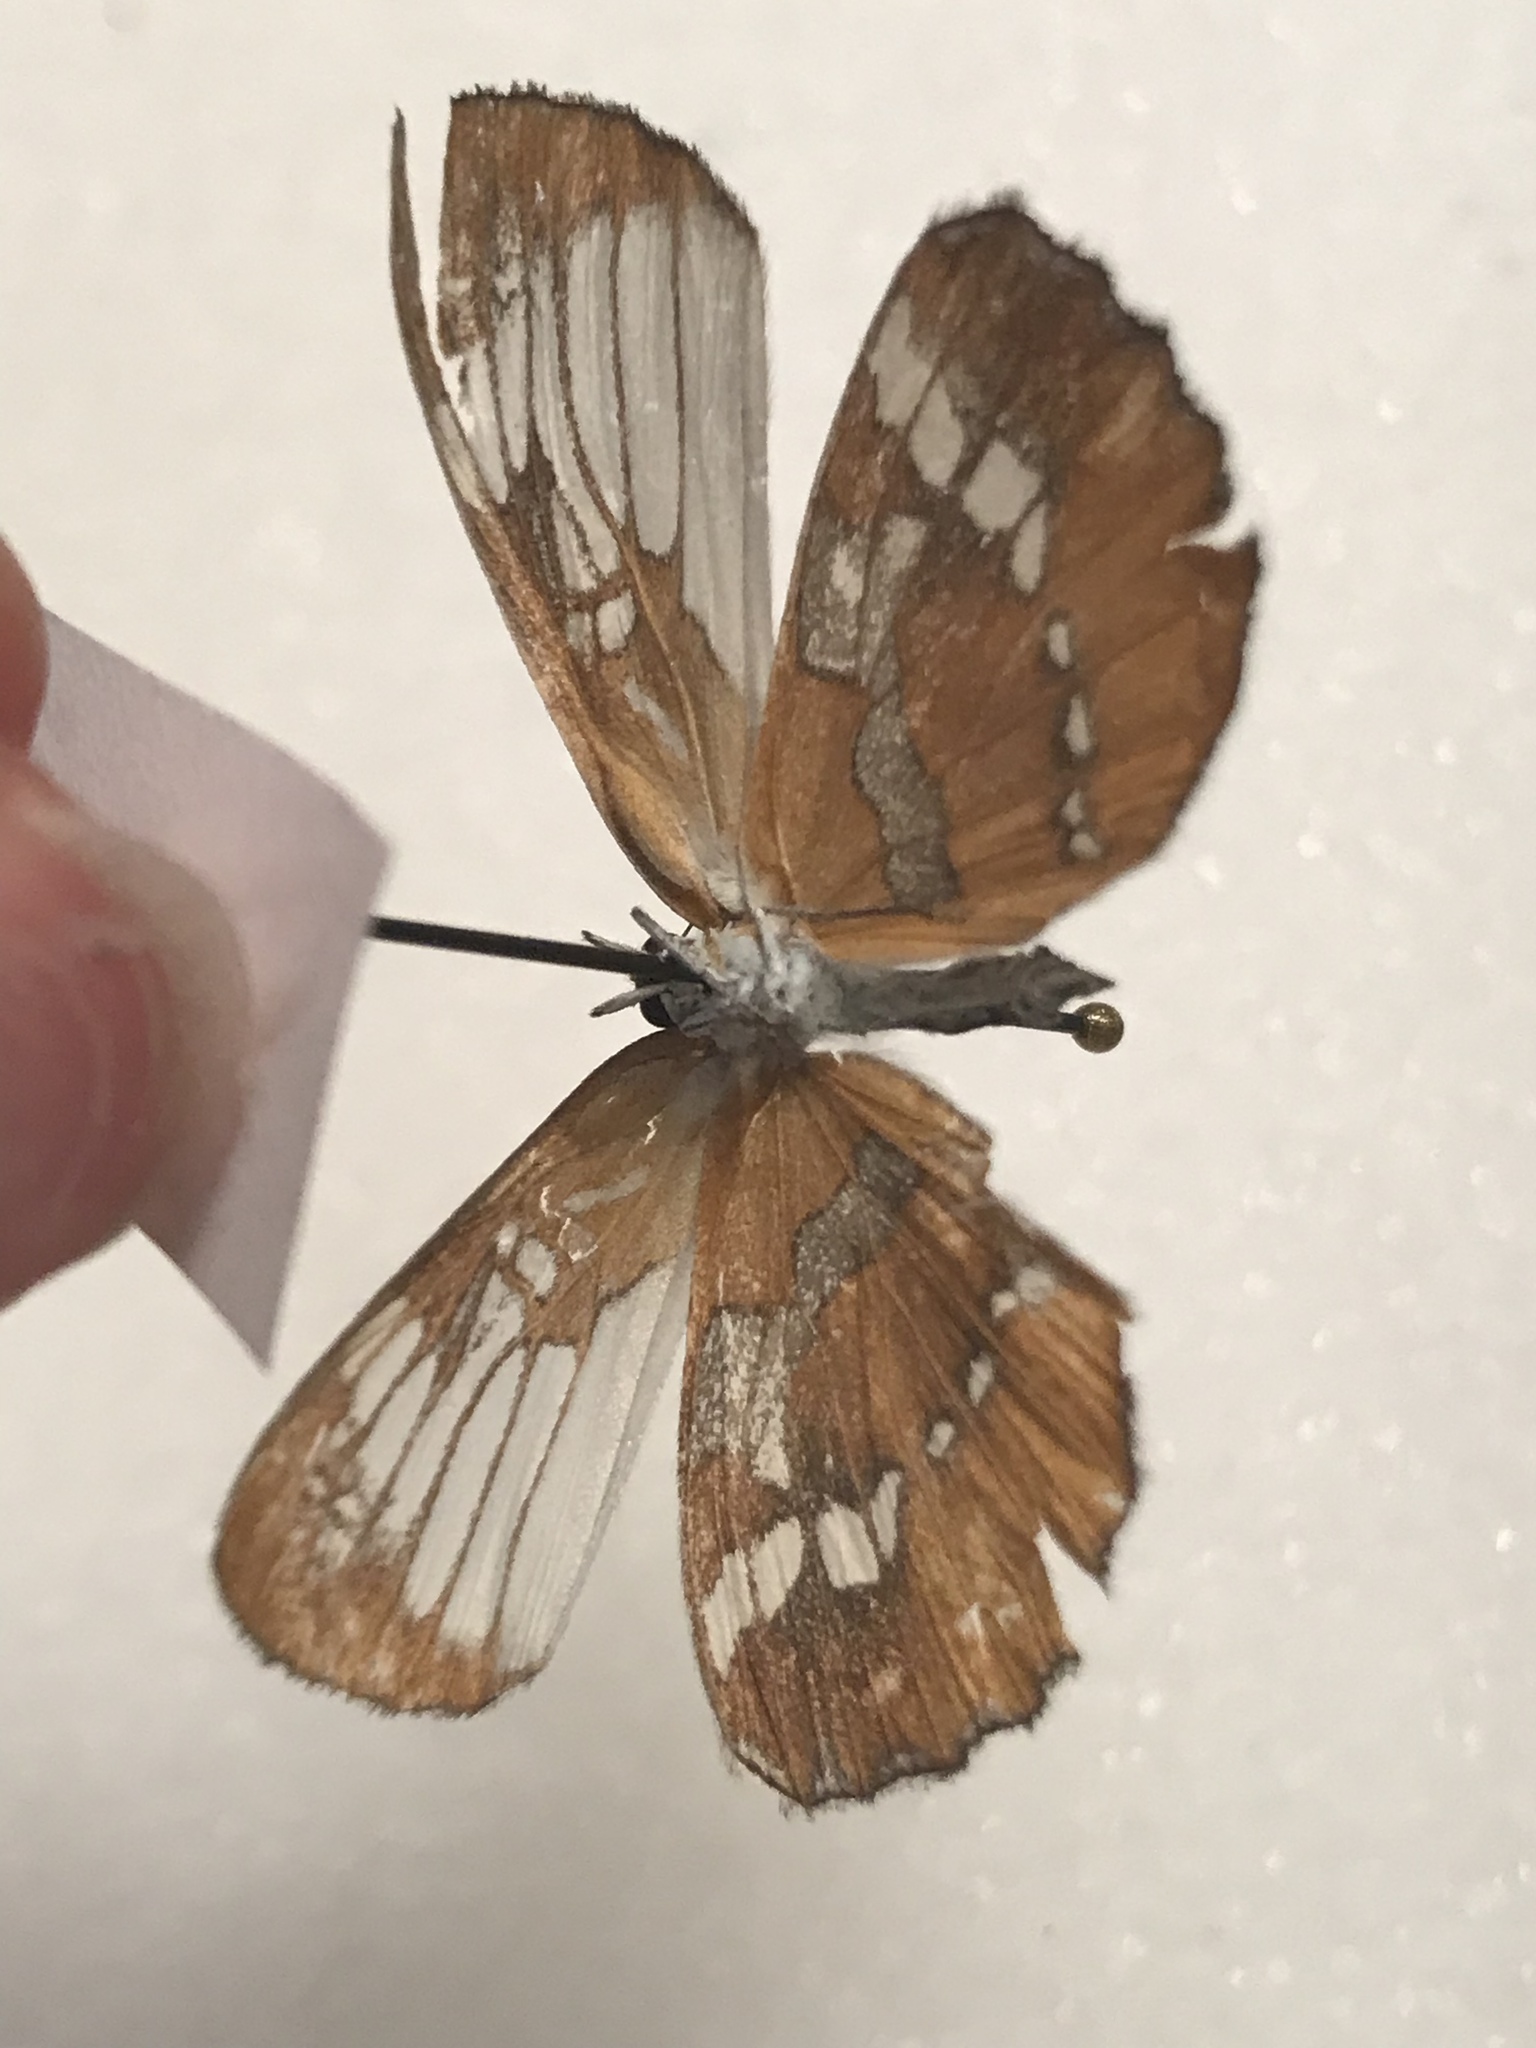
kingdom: Animalia
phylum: Arthropoda
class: Insecta
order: Lepidoptera
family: Nymphalidae
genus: Mestra
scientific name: Mestra amymone
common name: Common mestra
